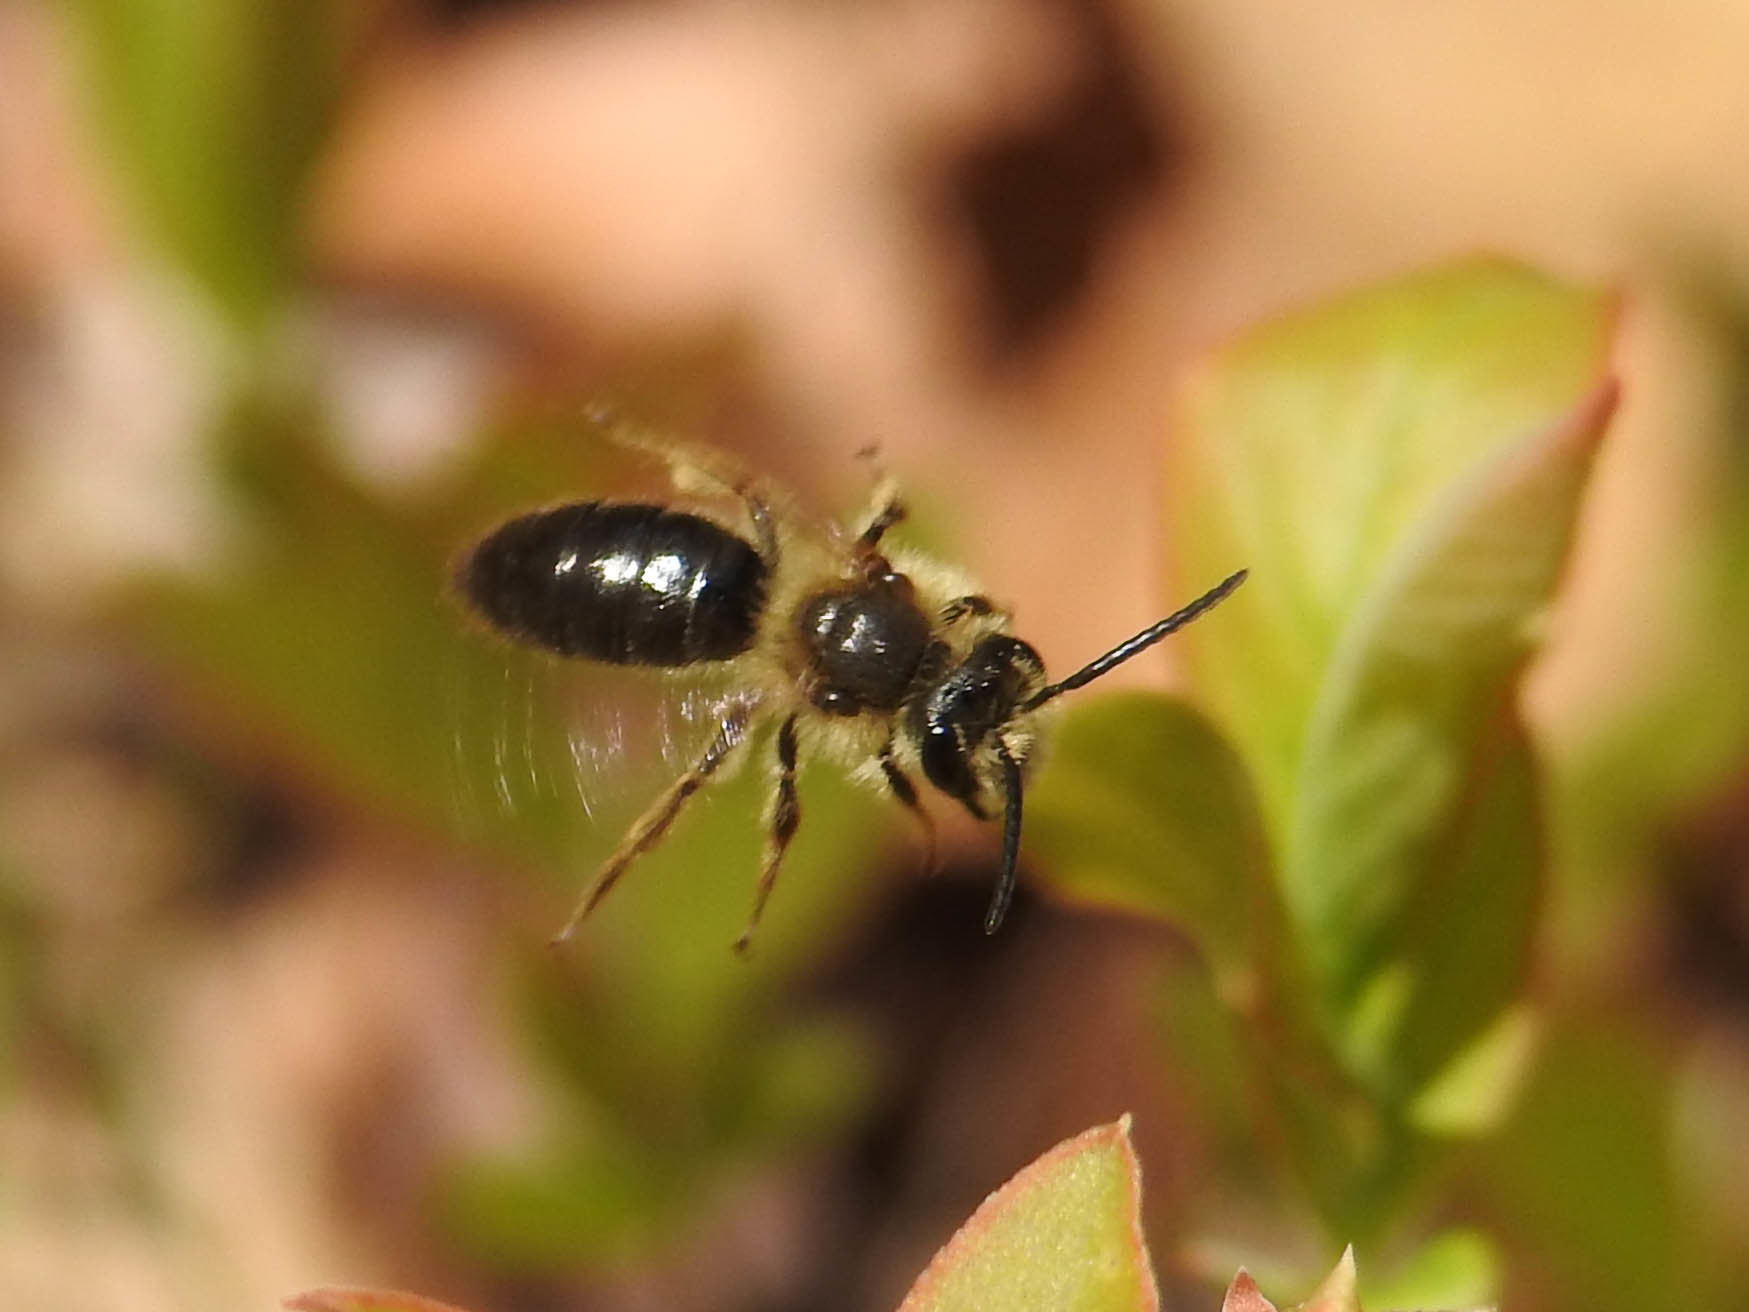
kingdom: Animalia
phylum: Arthropoda
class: Insecta
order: Hymenoptera
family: Andrenidae
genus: Andrena
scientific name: Andrena
